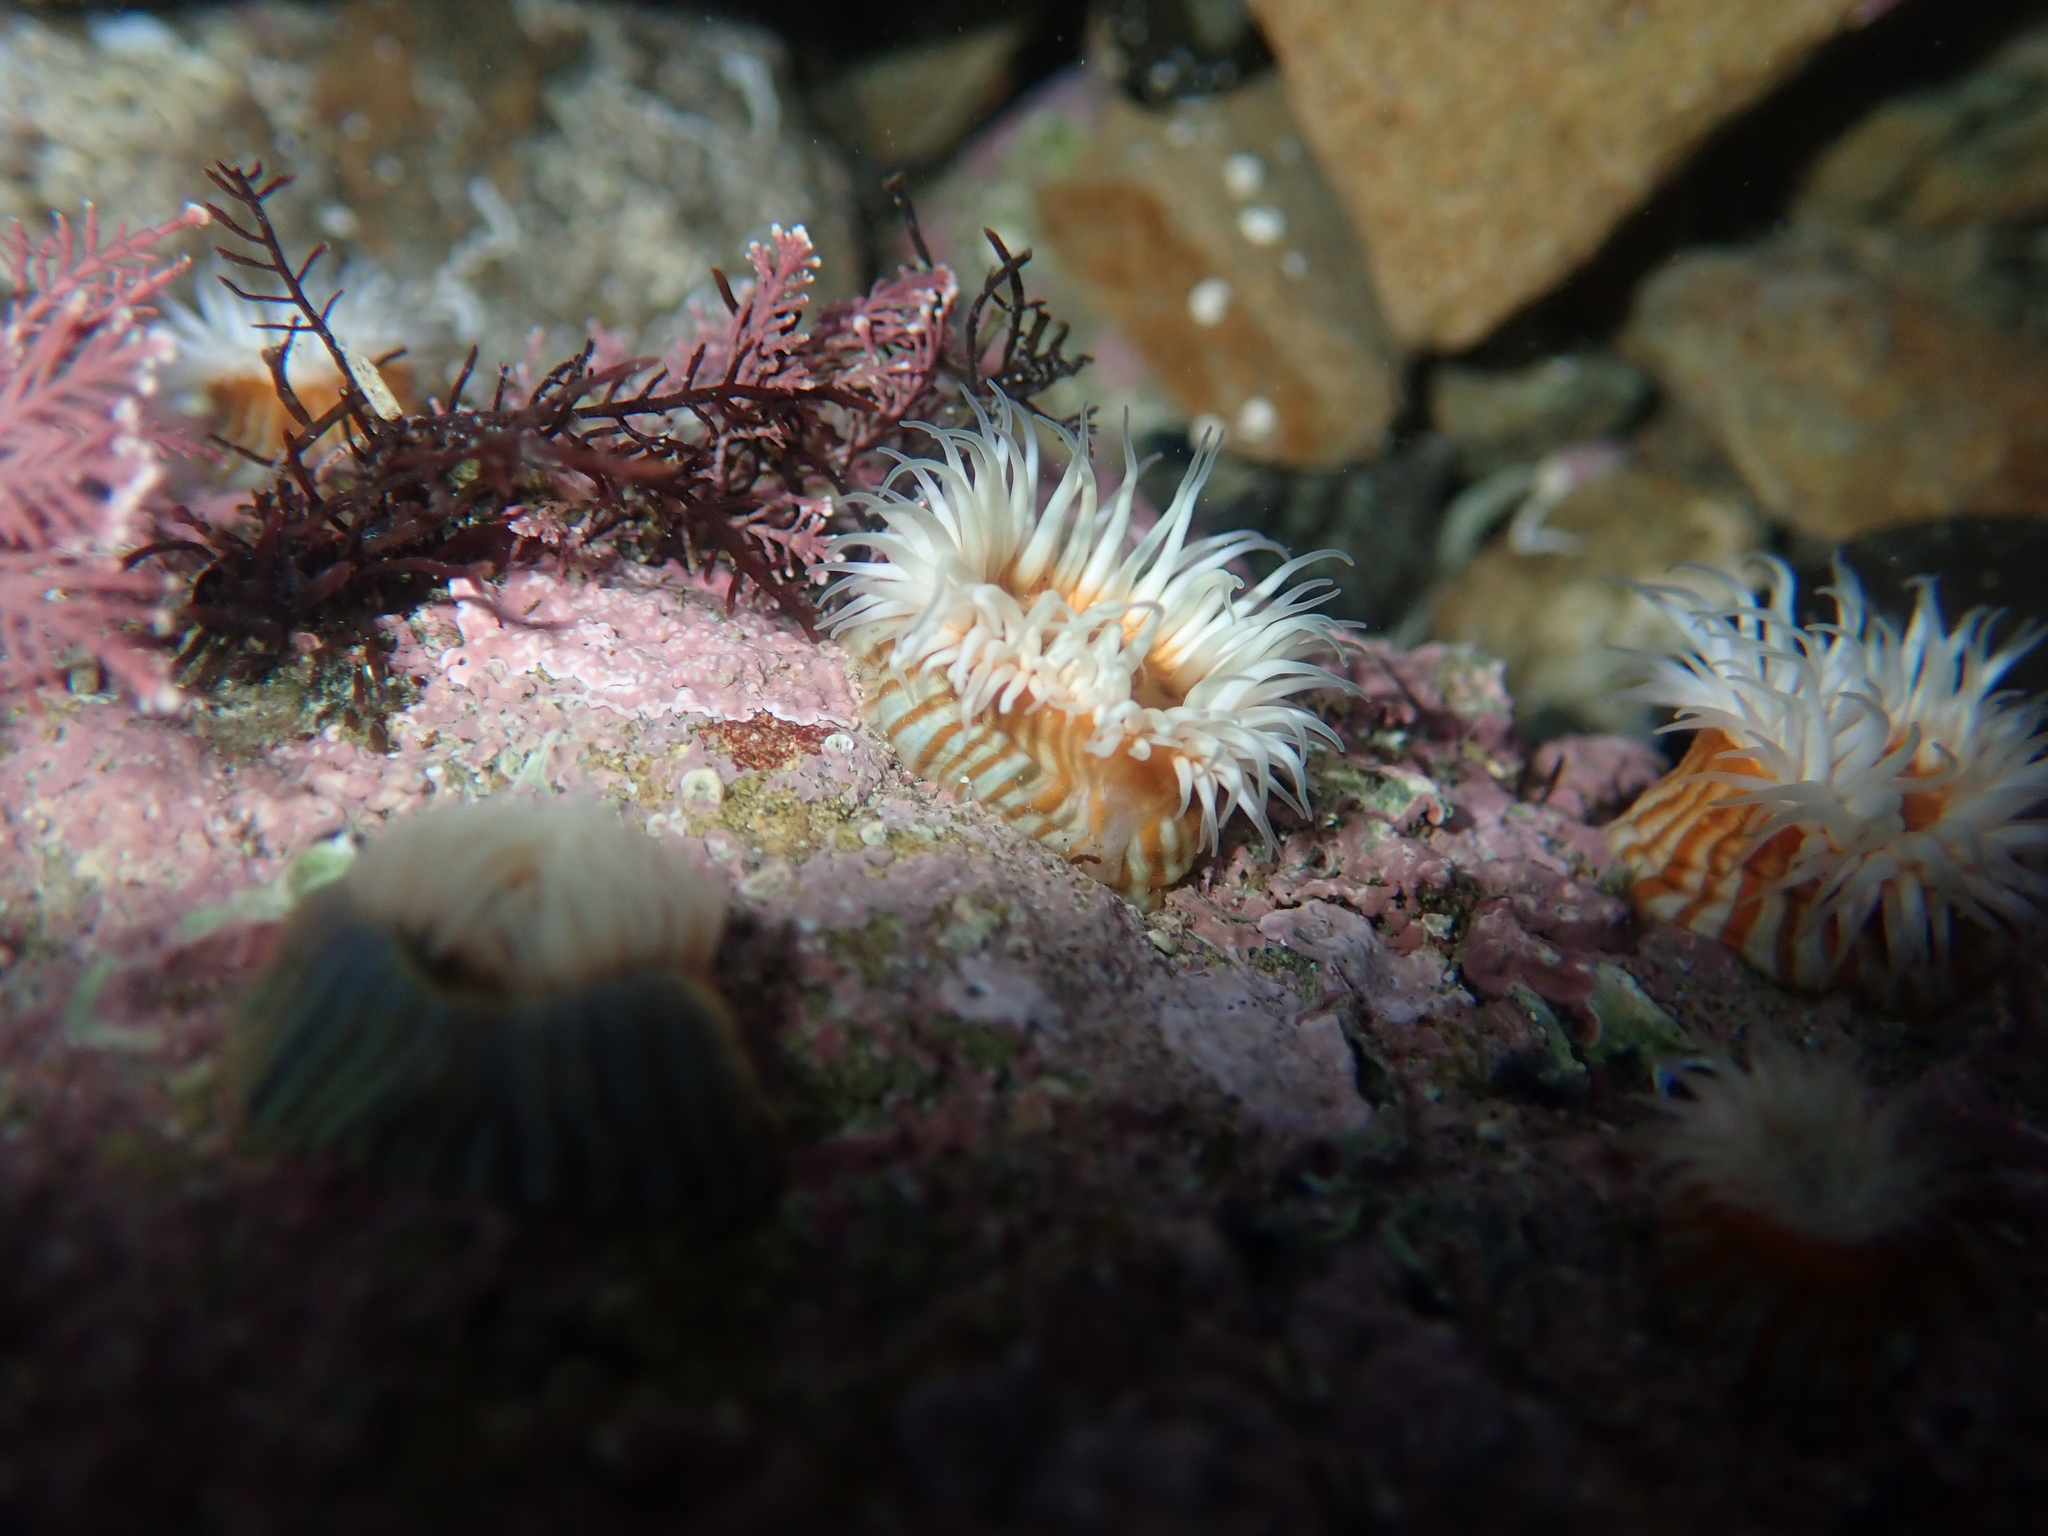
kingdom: Animalia
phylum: Cnidaria
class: Anthozoa
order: Actiniaria
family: Sagartiidae
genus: Anthothoe
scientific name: Anthothoe albocincta
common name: Orange striped anemone
